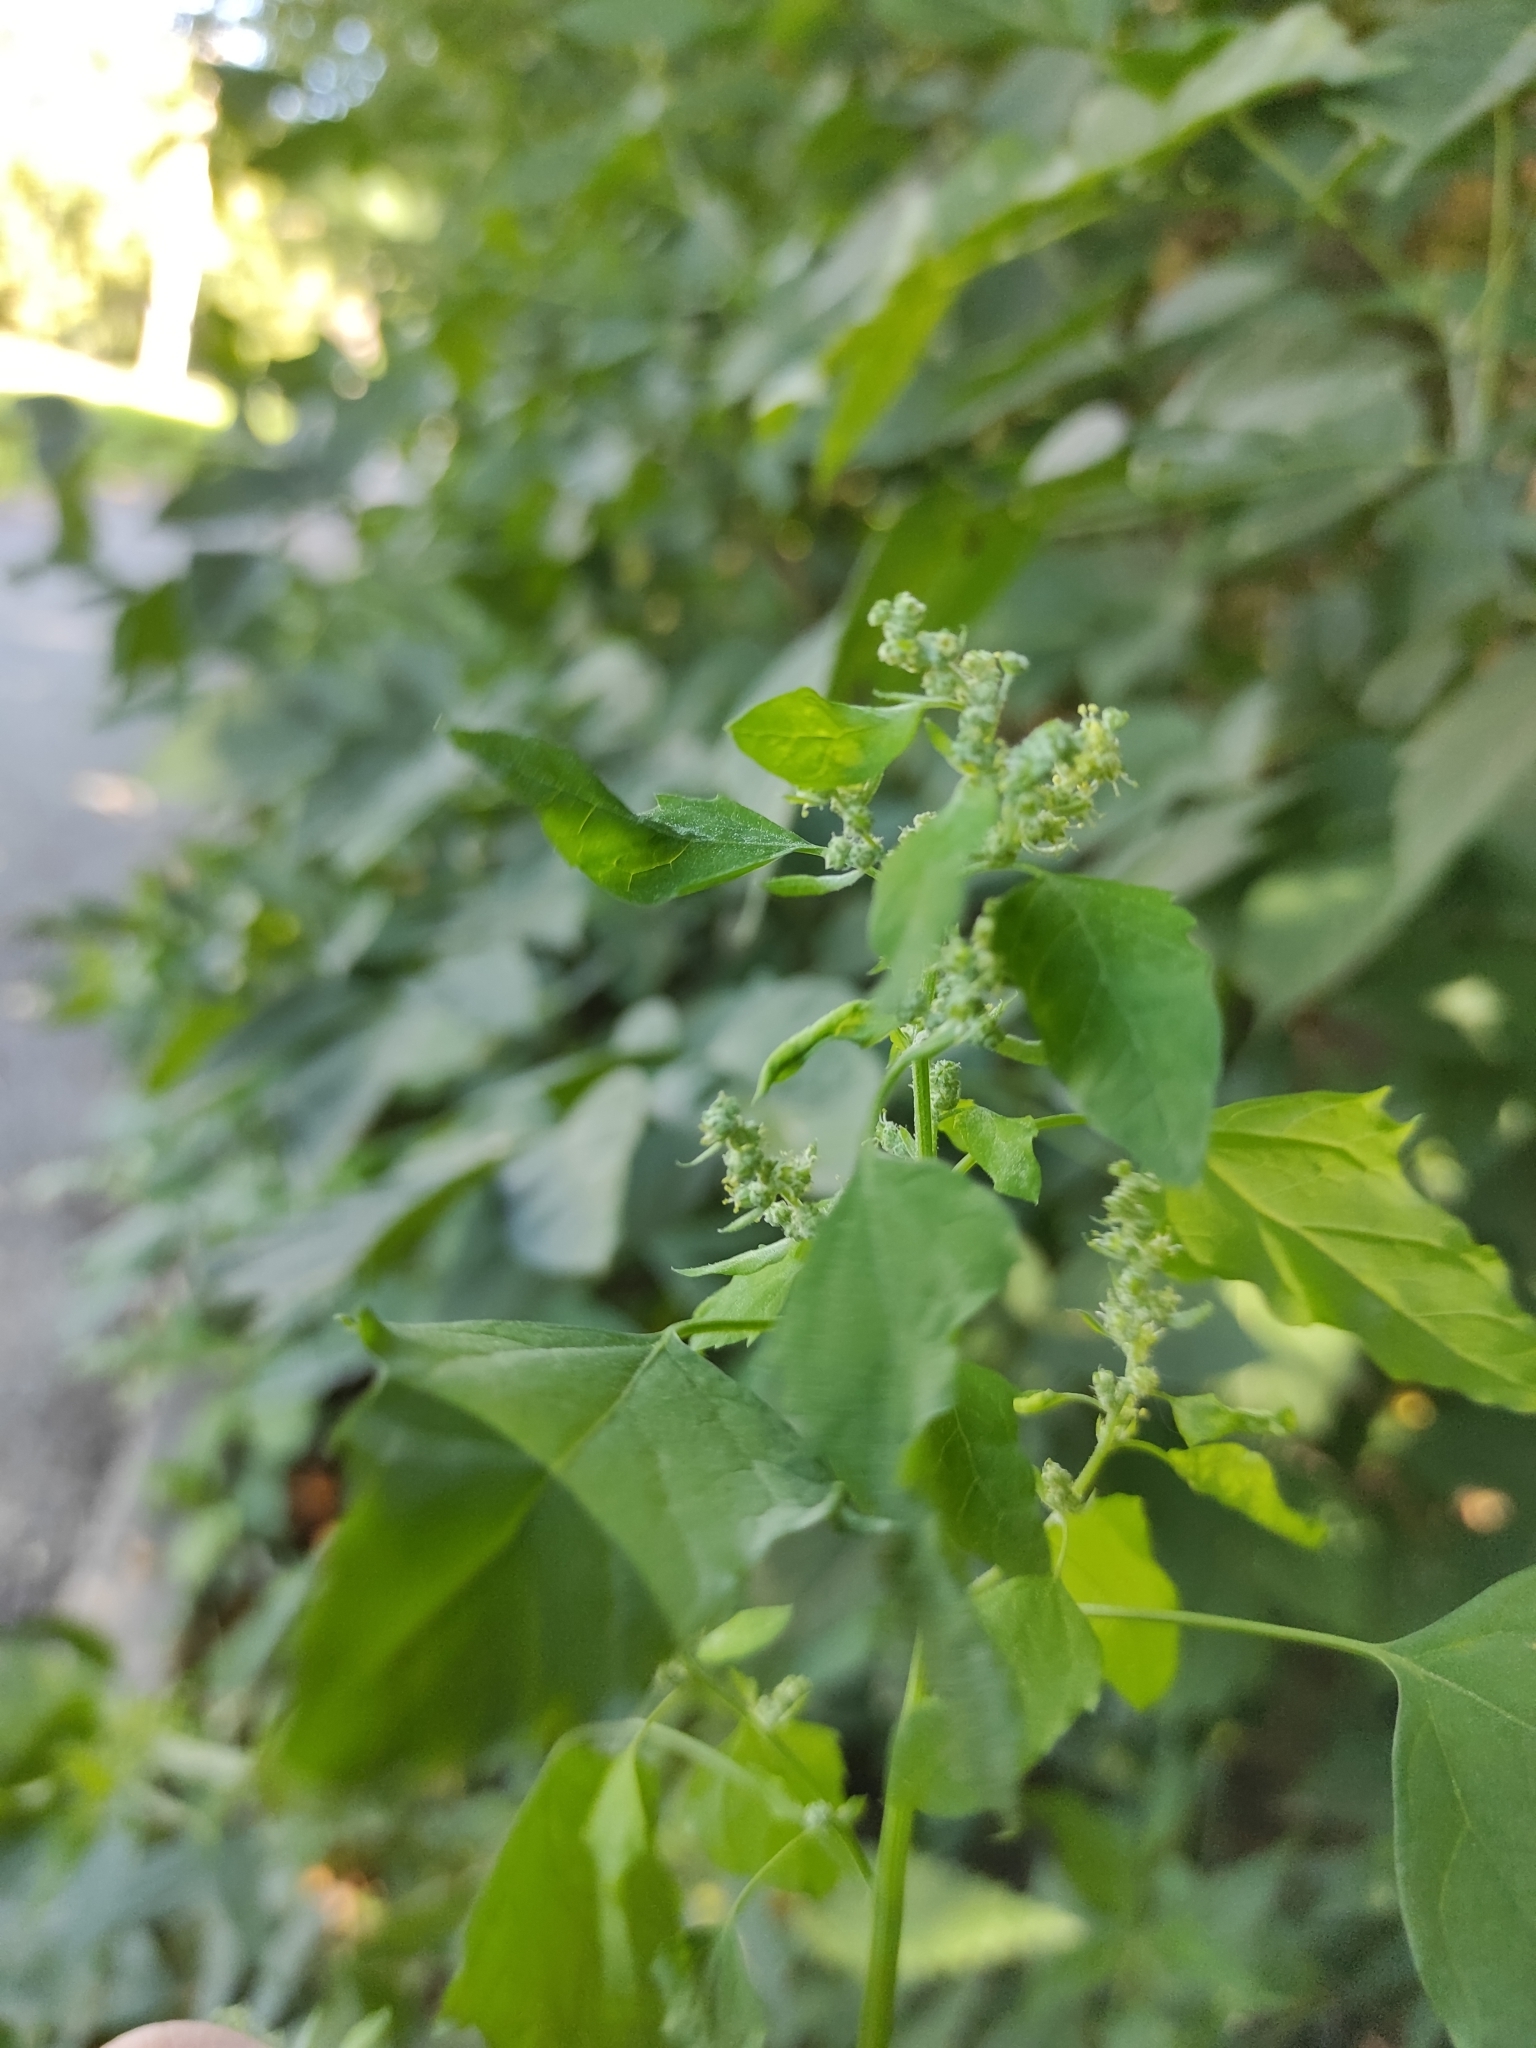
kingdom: Plantae
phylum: Tracheophyta
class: Magnoliopsida
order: Caryophyllales
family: Amaranthaceae
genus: Chenopodium
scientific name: Chenopodium album
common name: Fat-hen
